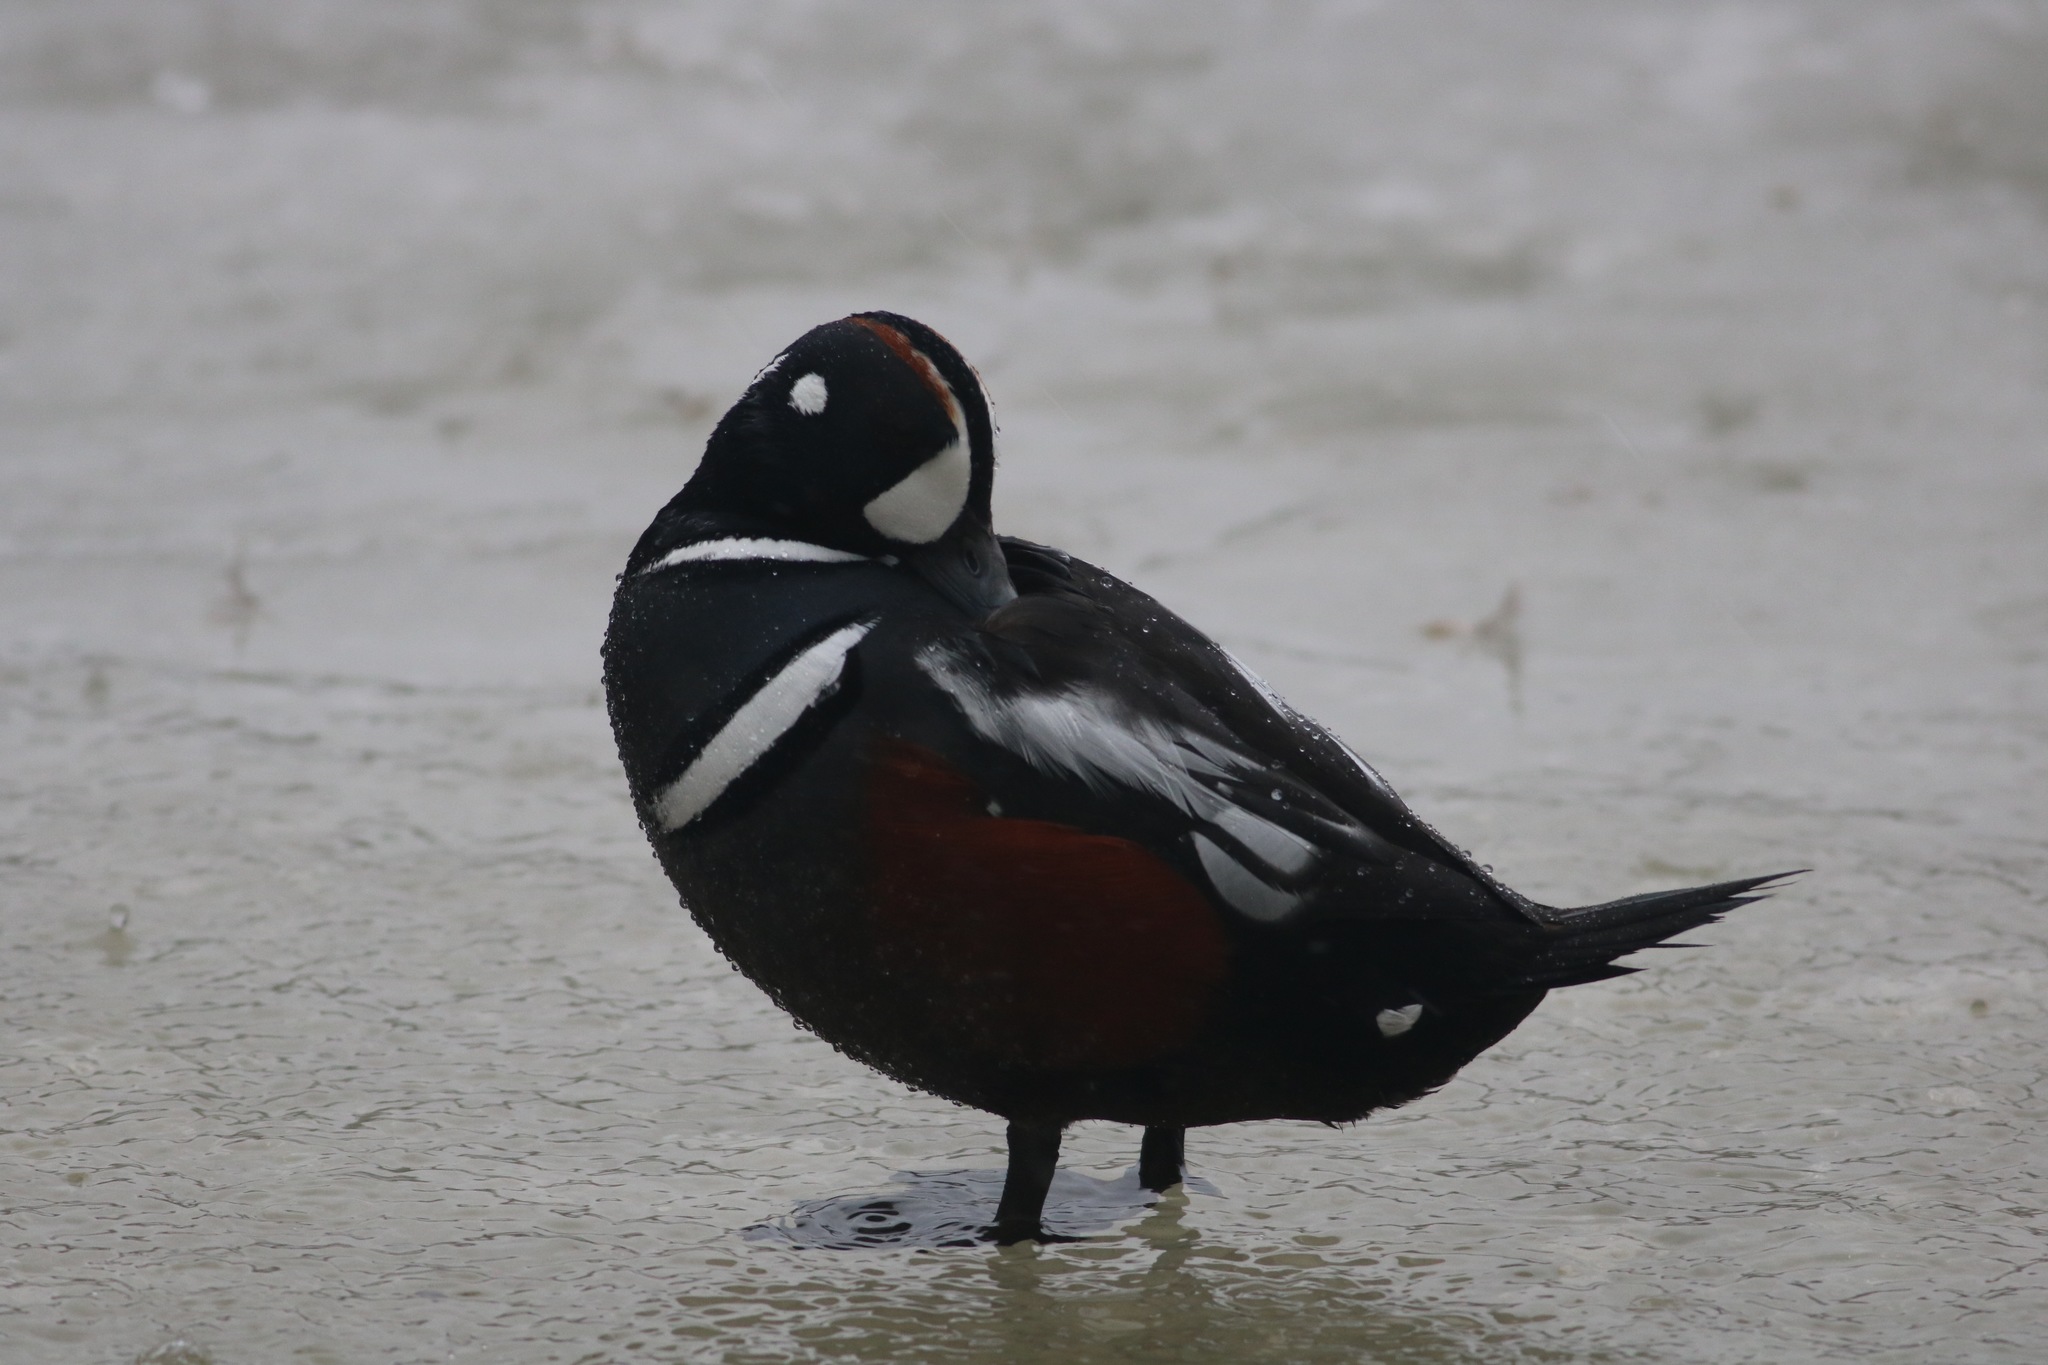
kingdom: Animalia
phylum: Chordata
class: Aves
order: Anseriformes
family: Anatidae
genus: Histrionicus
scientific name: Histrionicus histrionicus
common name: Harlequin duck
